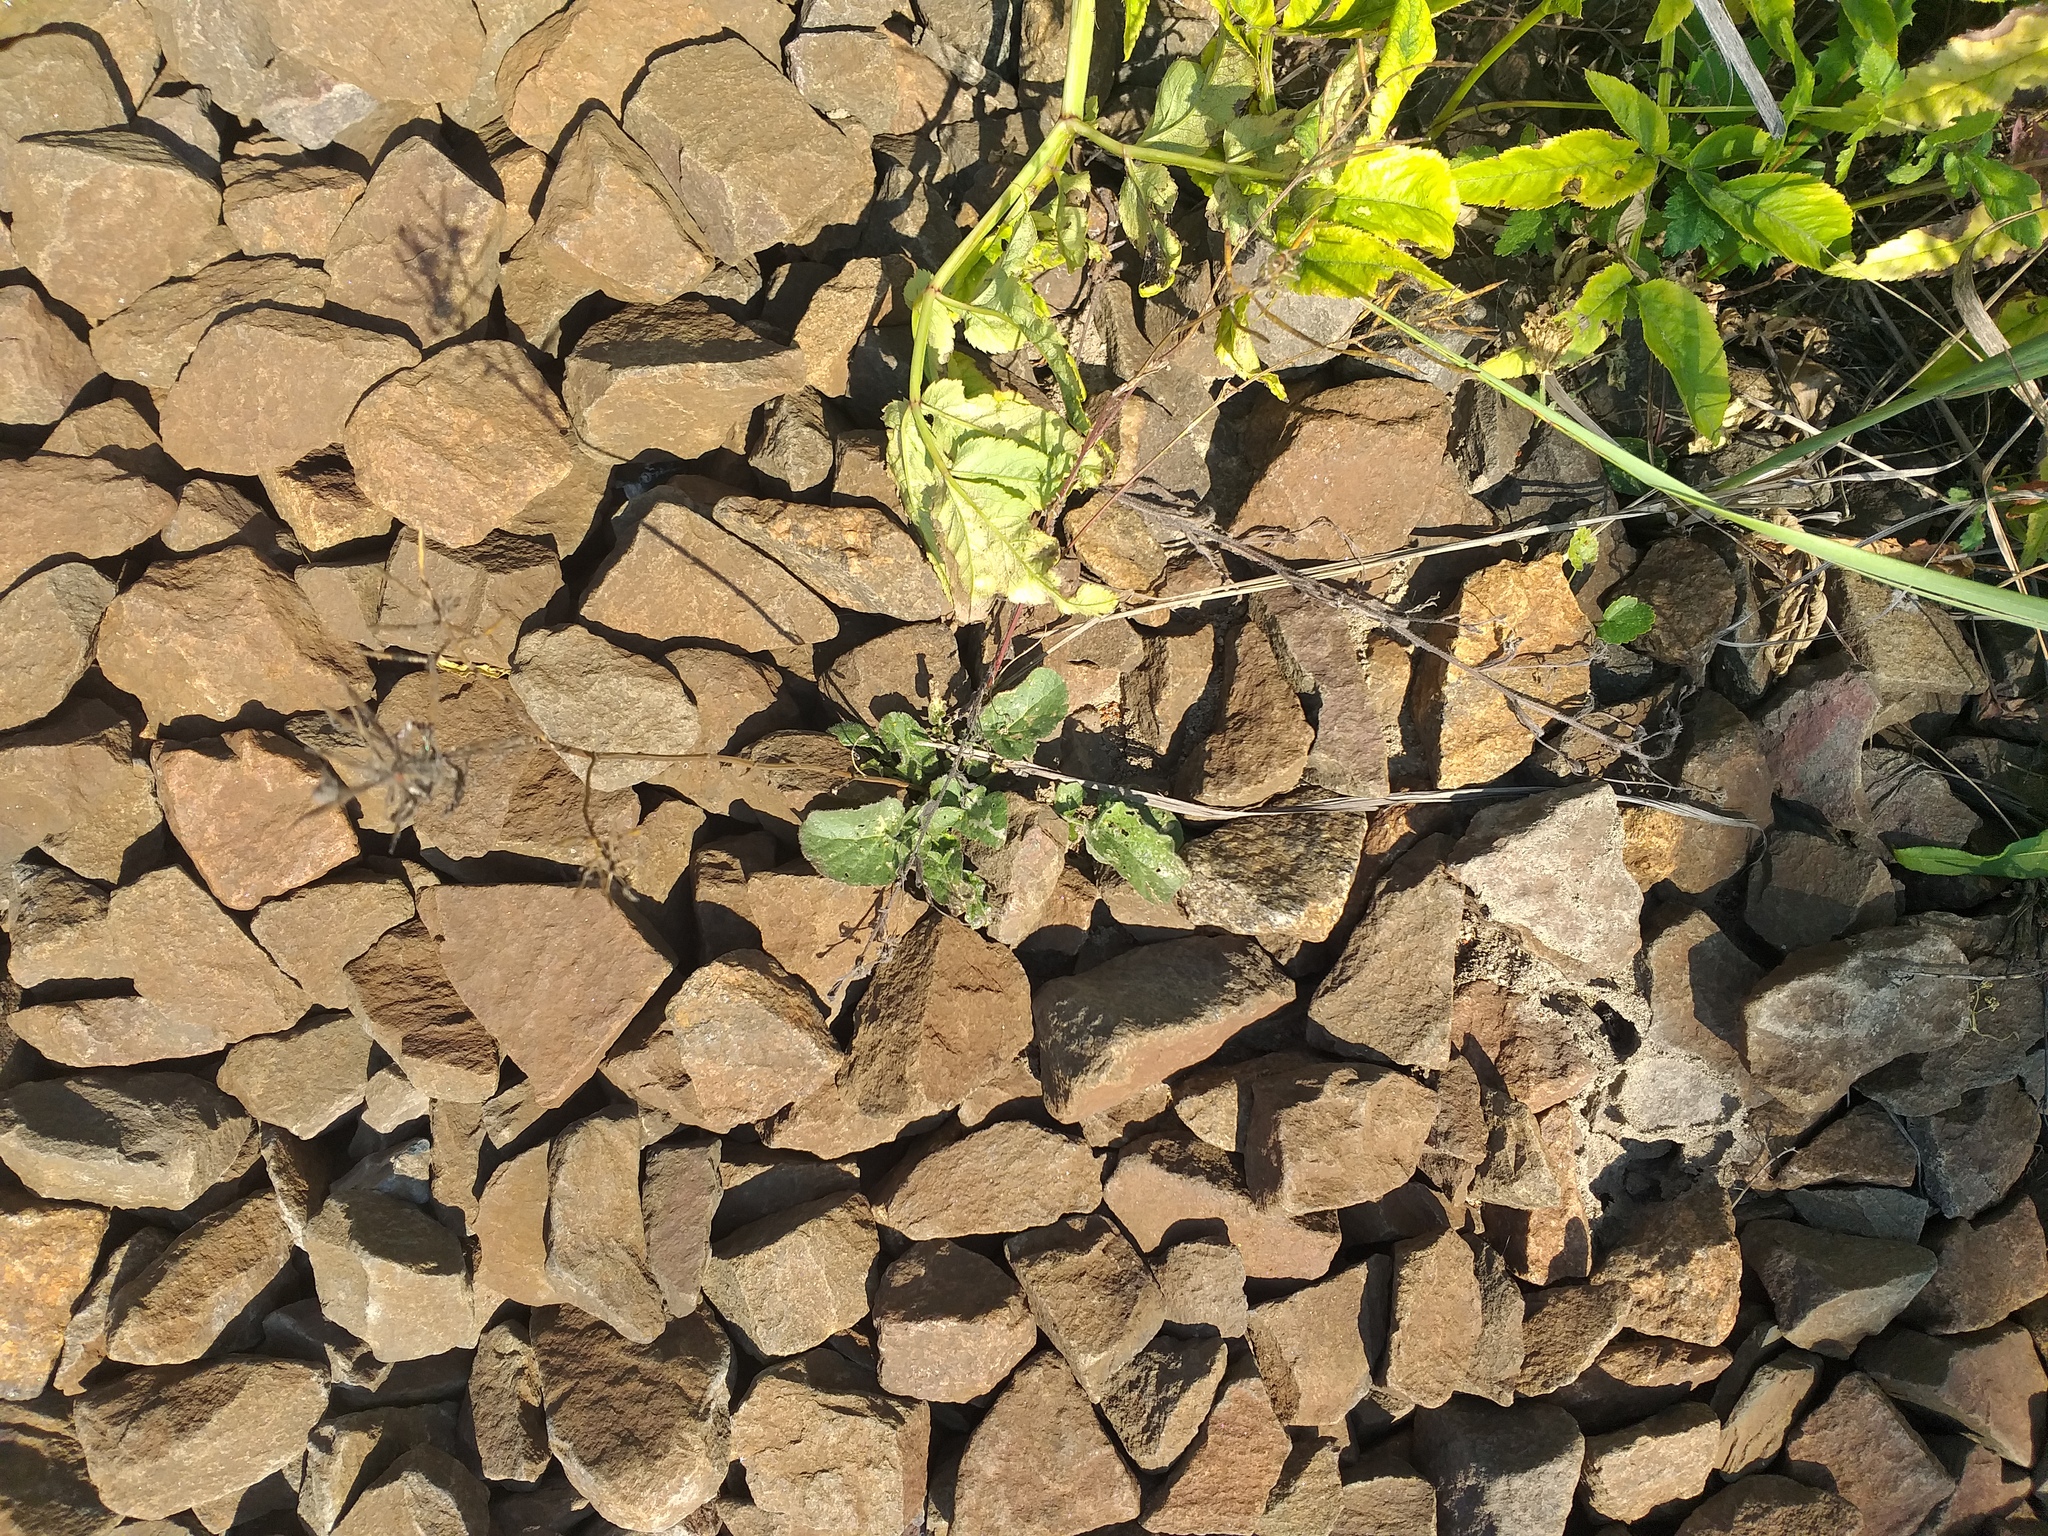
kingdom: Plantae
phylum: Tracheophyta
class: Magnoliopsida
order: Brassicales
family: Brassicaceae
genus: Barbarea
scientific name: Barbarea vulgaris
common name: Cressy-greens
